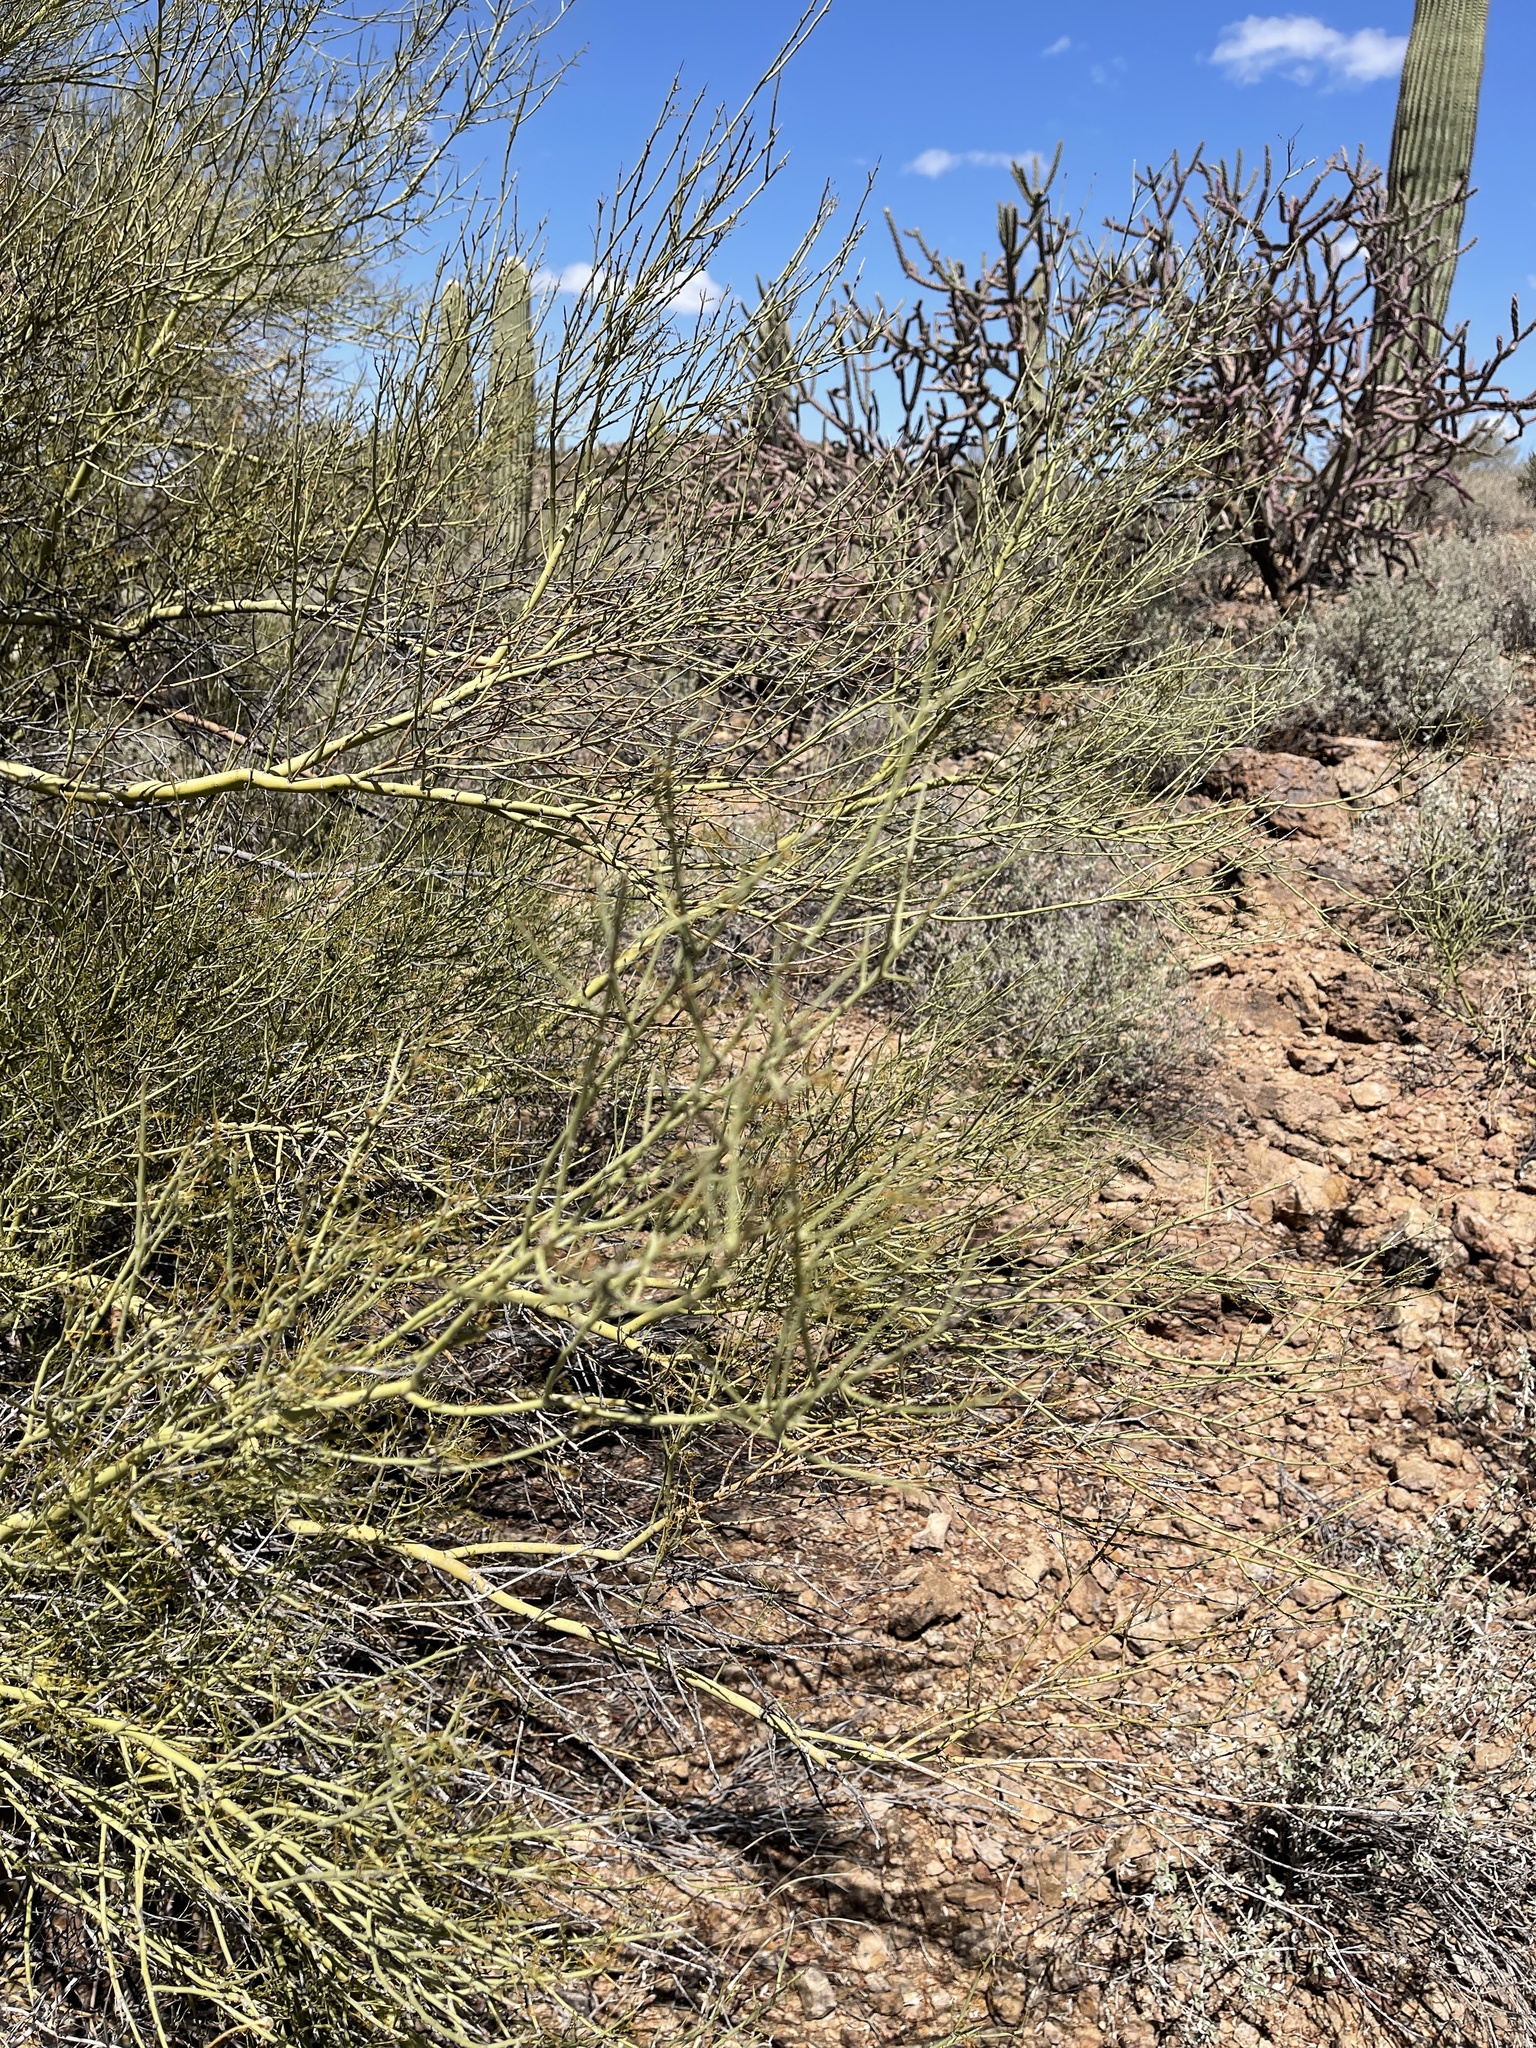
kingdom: Plantae
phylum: Tracheophyta
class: Magnoliopsida
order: Fabales
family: Fabaceae
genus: Parkinsonia
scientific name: Parkinsonia microphylla
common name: Yellow paloverde
